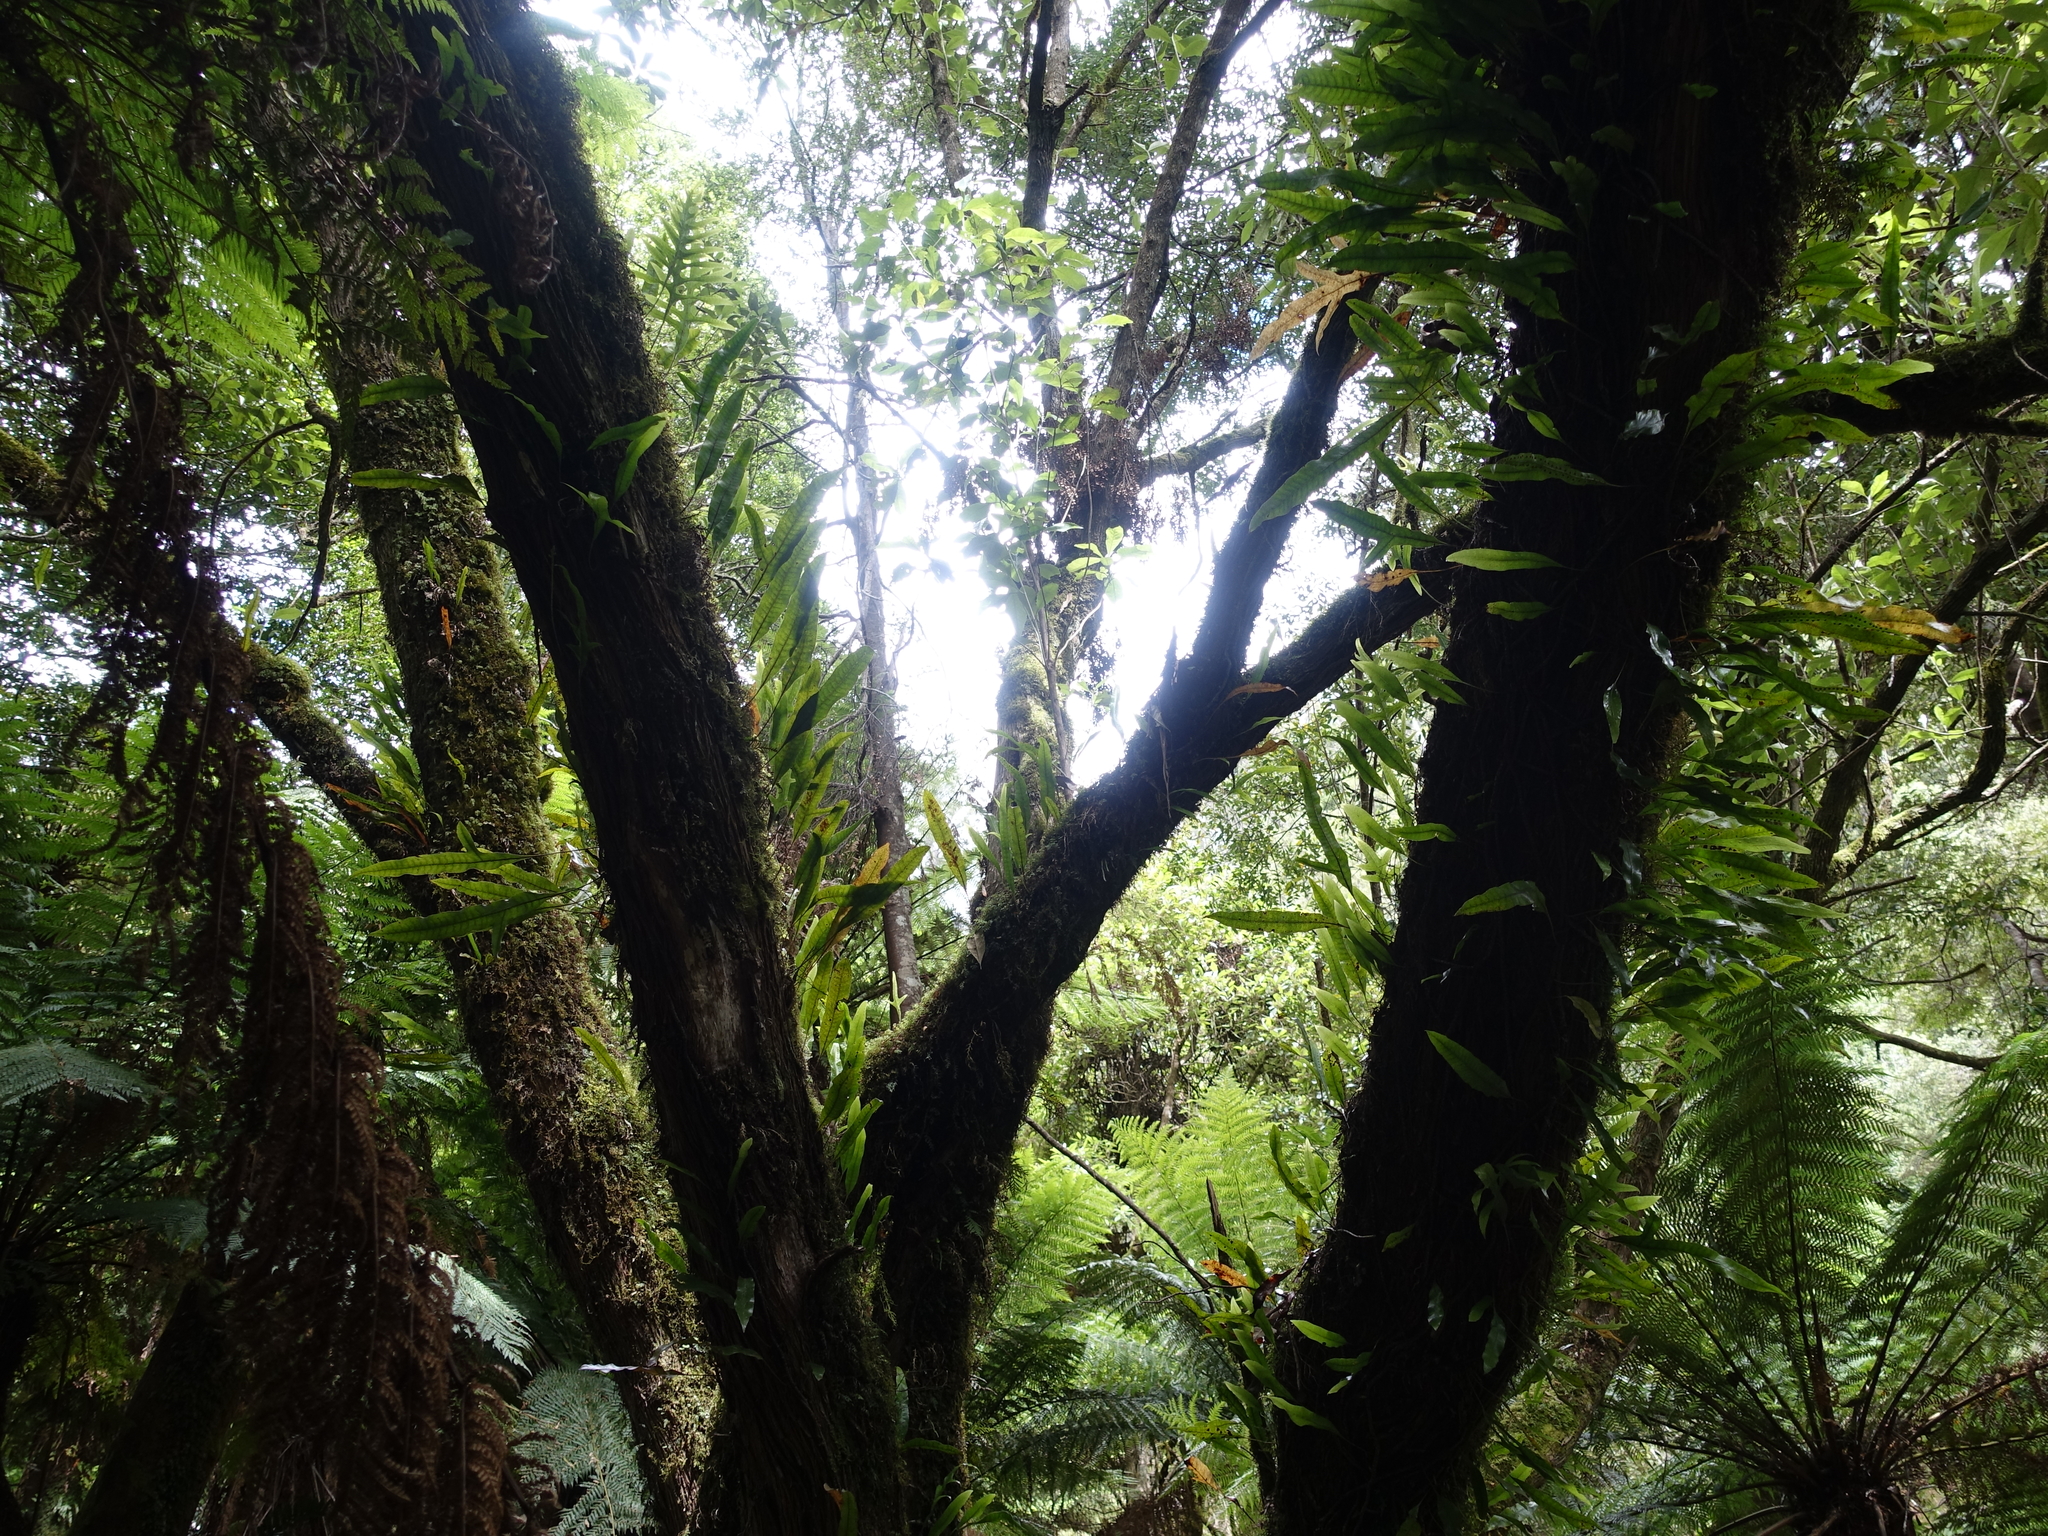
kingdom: Plantae
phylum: Tracheophyta
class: Polypodiopsida
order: Polypodiales
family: Polypodiaceae
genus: Lecanopteris
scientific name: Lecanopteris pustulata
